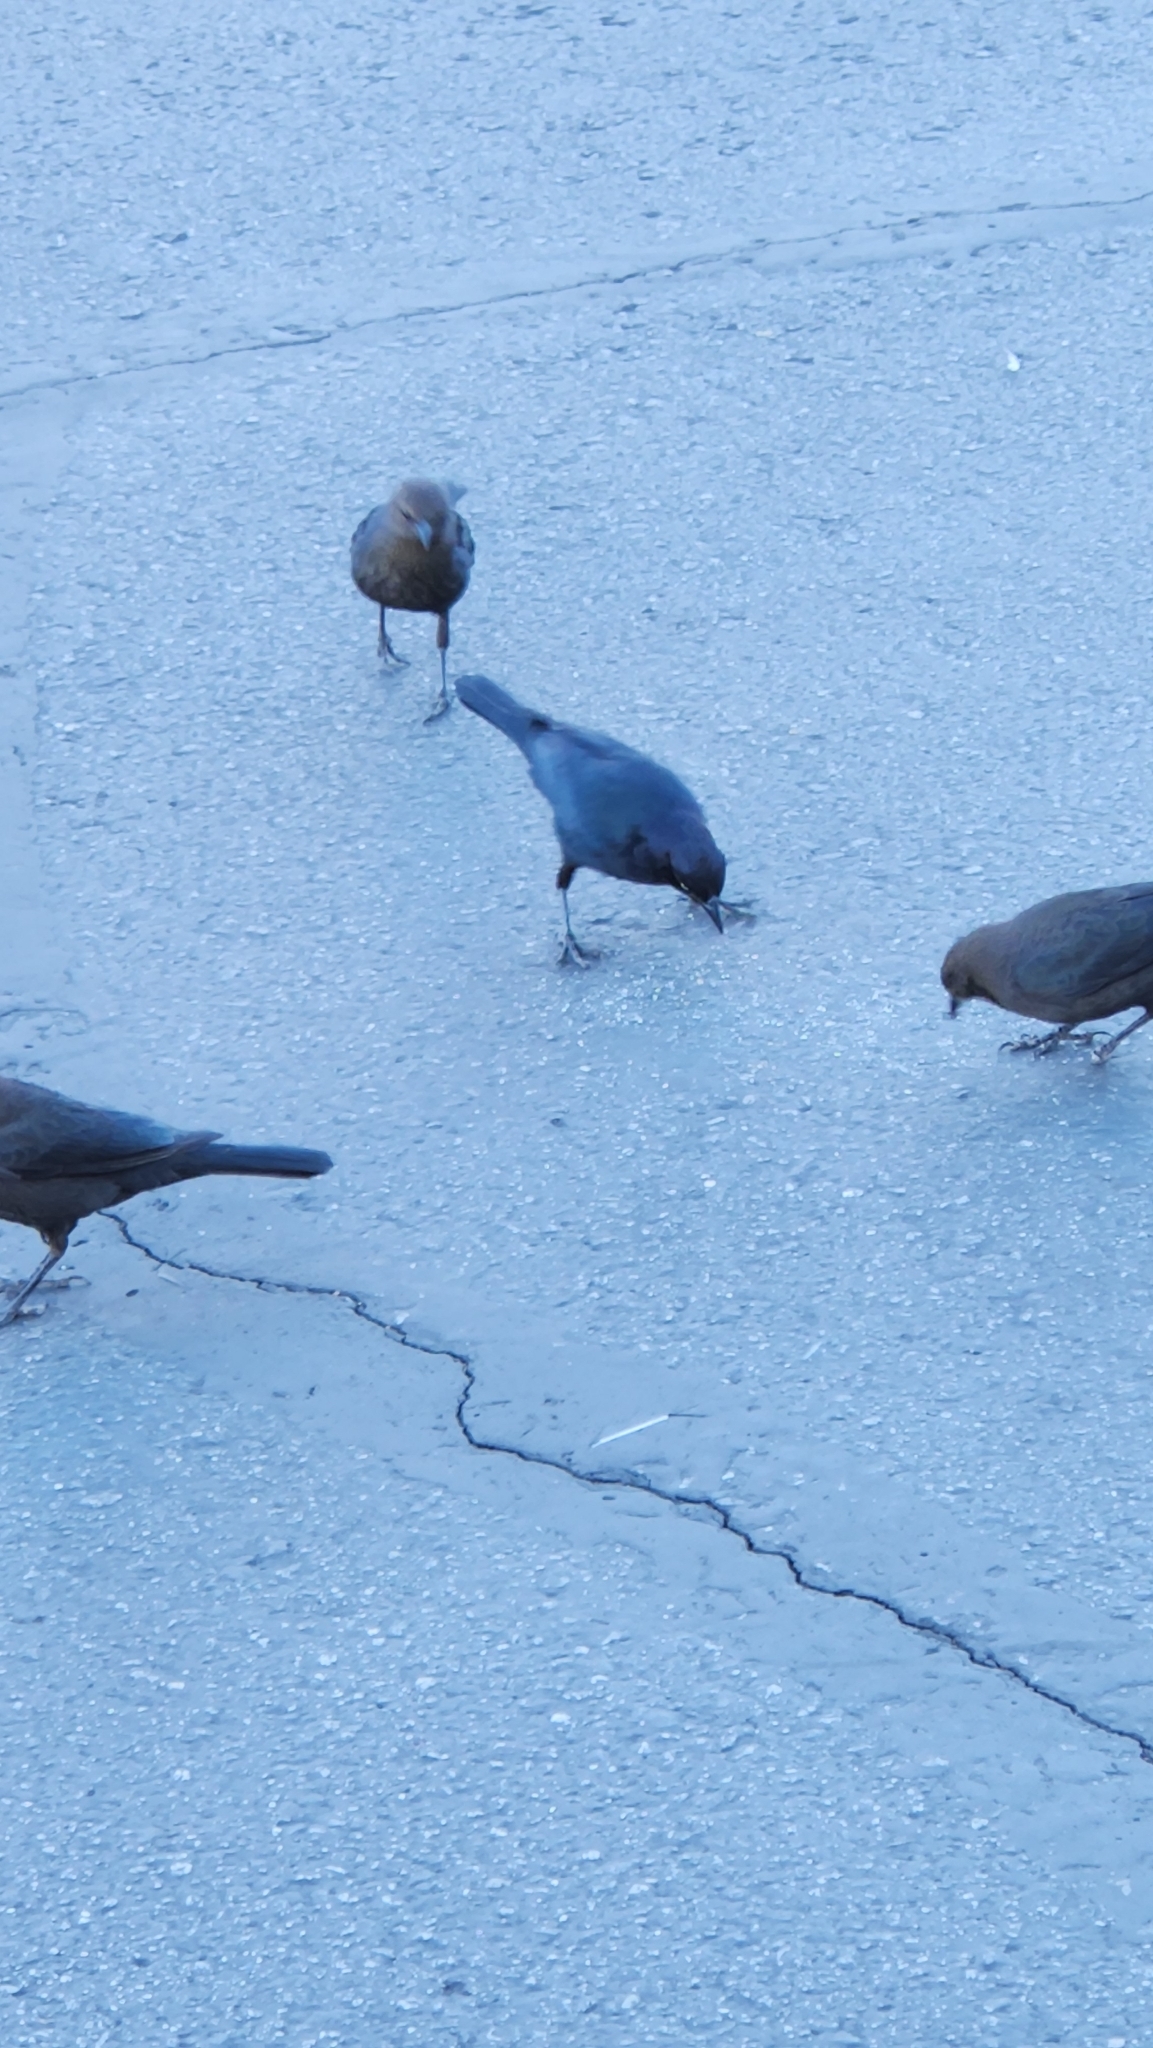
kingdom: Animalia
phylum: Chordata
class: Aves
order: Passeriformes
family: Icteridae
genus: Euphagus
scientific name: Euphagus cyanocephalus
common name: Brewer's blackbird
